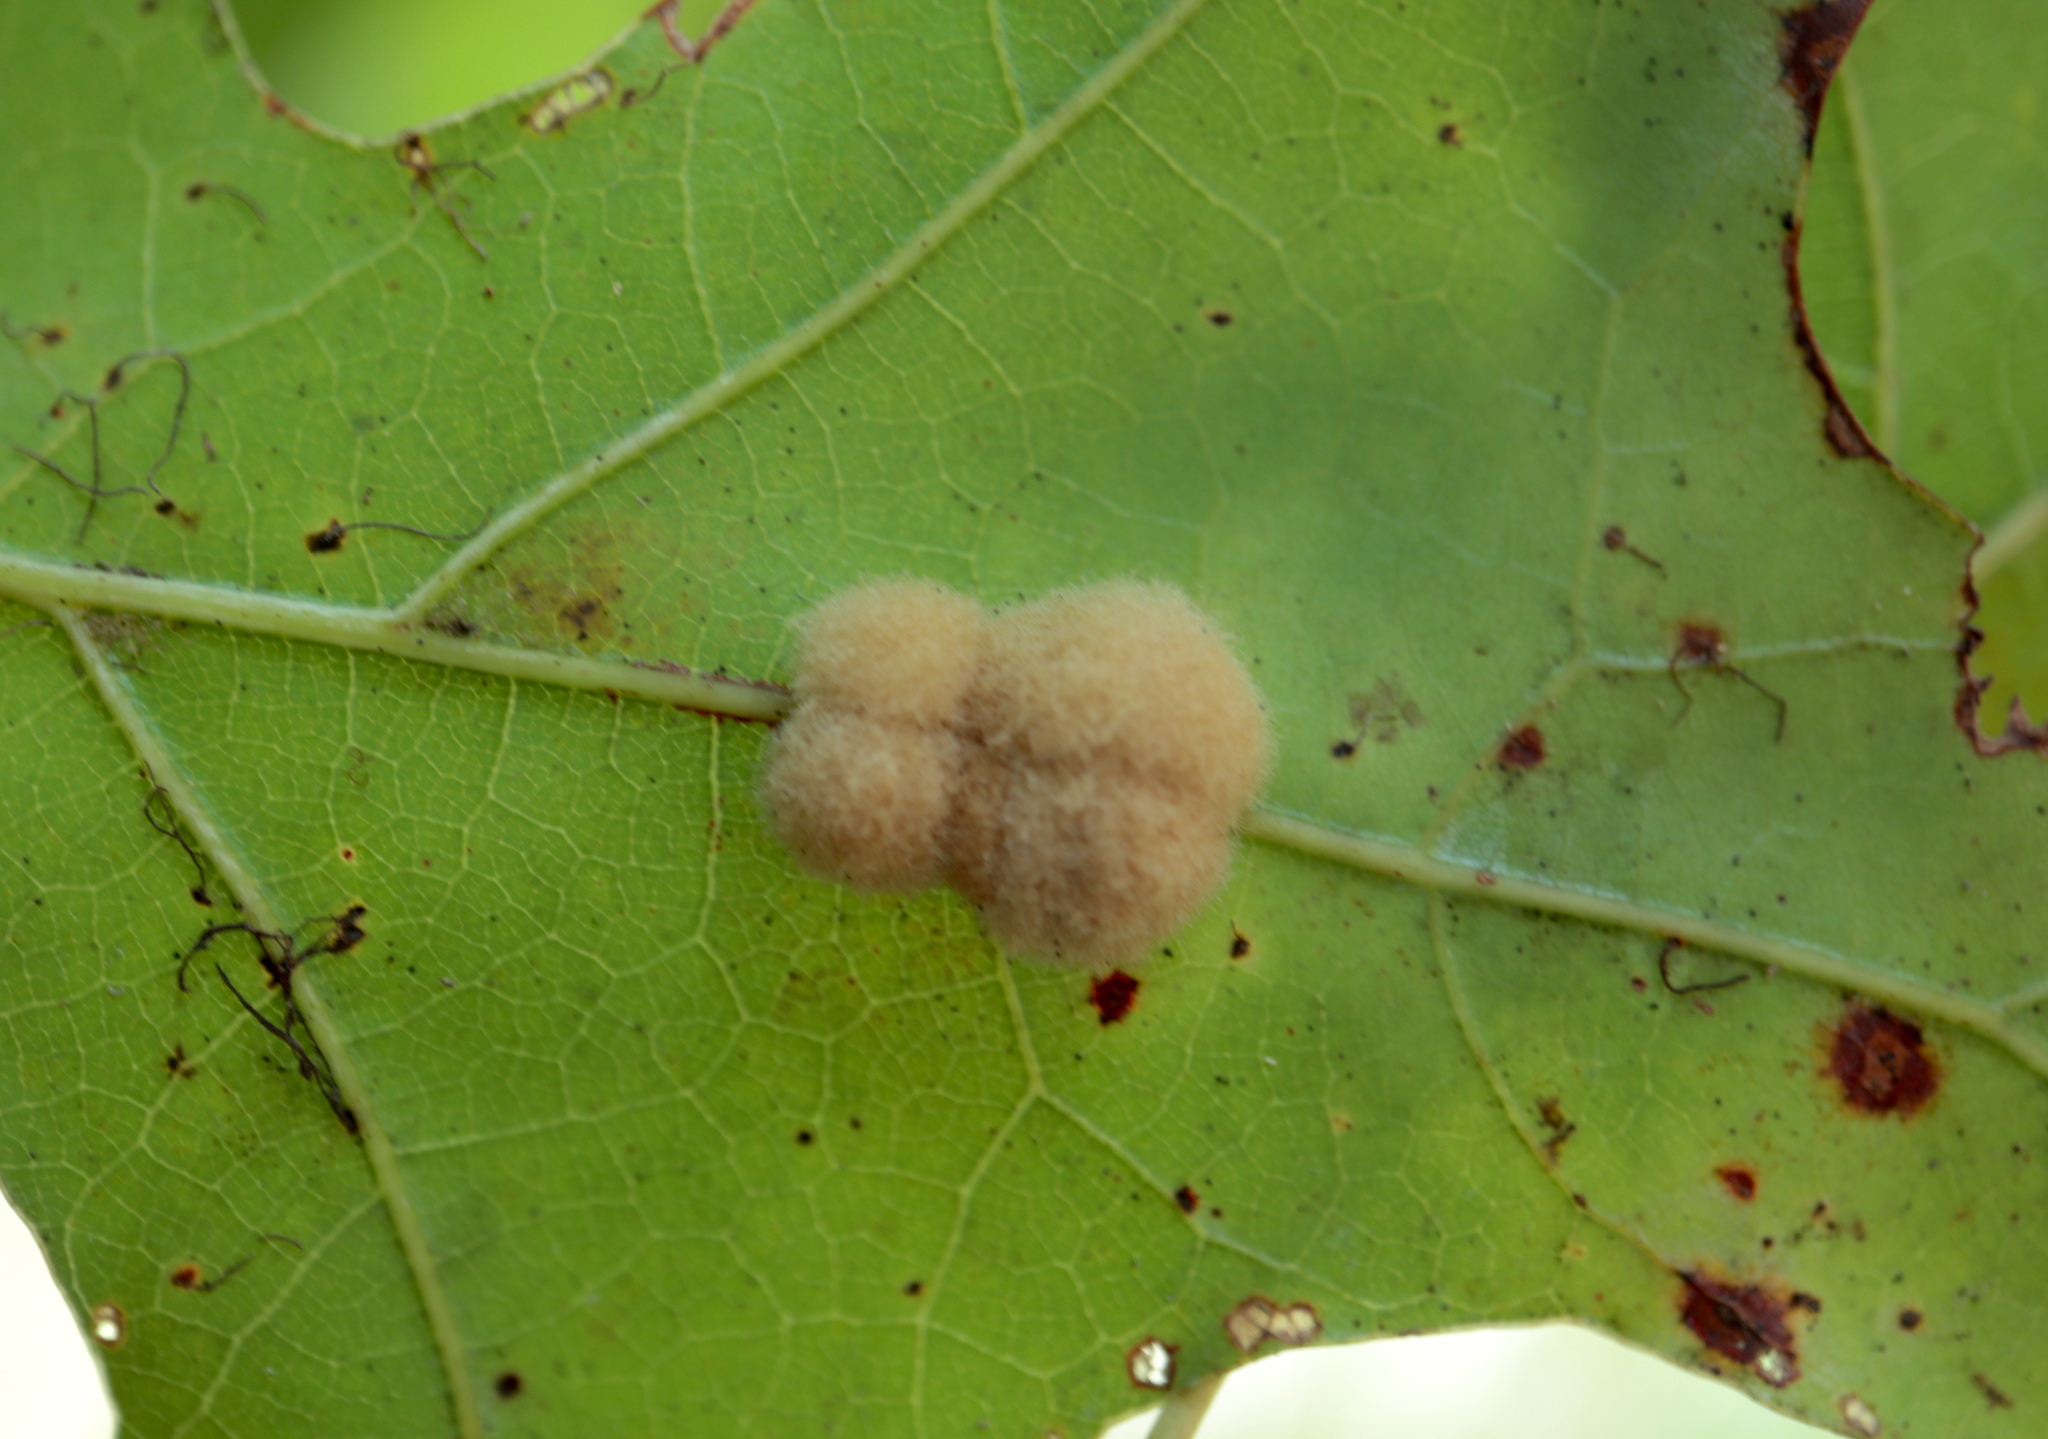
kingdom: Animalia
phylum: Arthropoda
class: Insecta
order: Hymenoptera
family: Cynipidae
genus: Callirhytis
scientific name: Callirhytis
